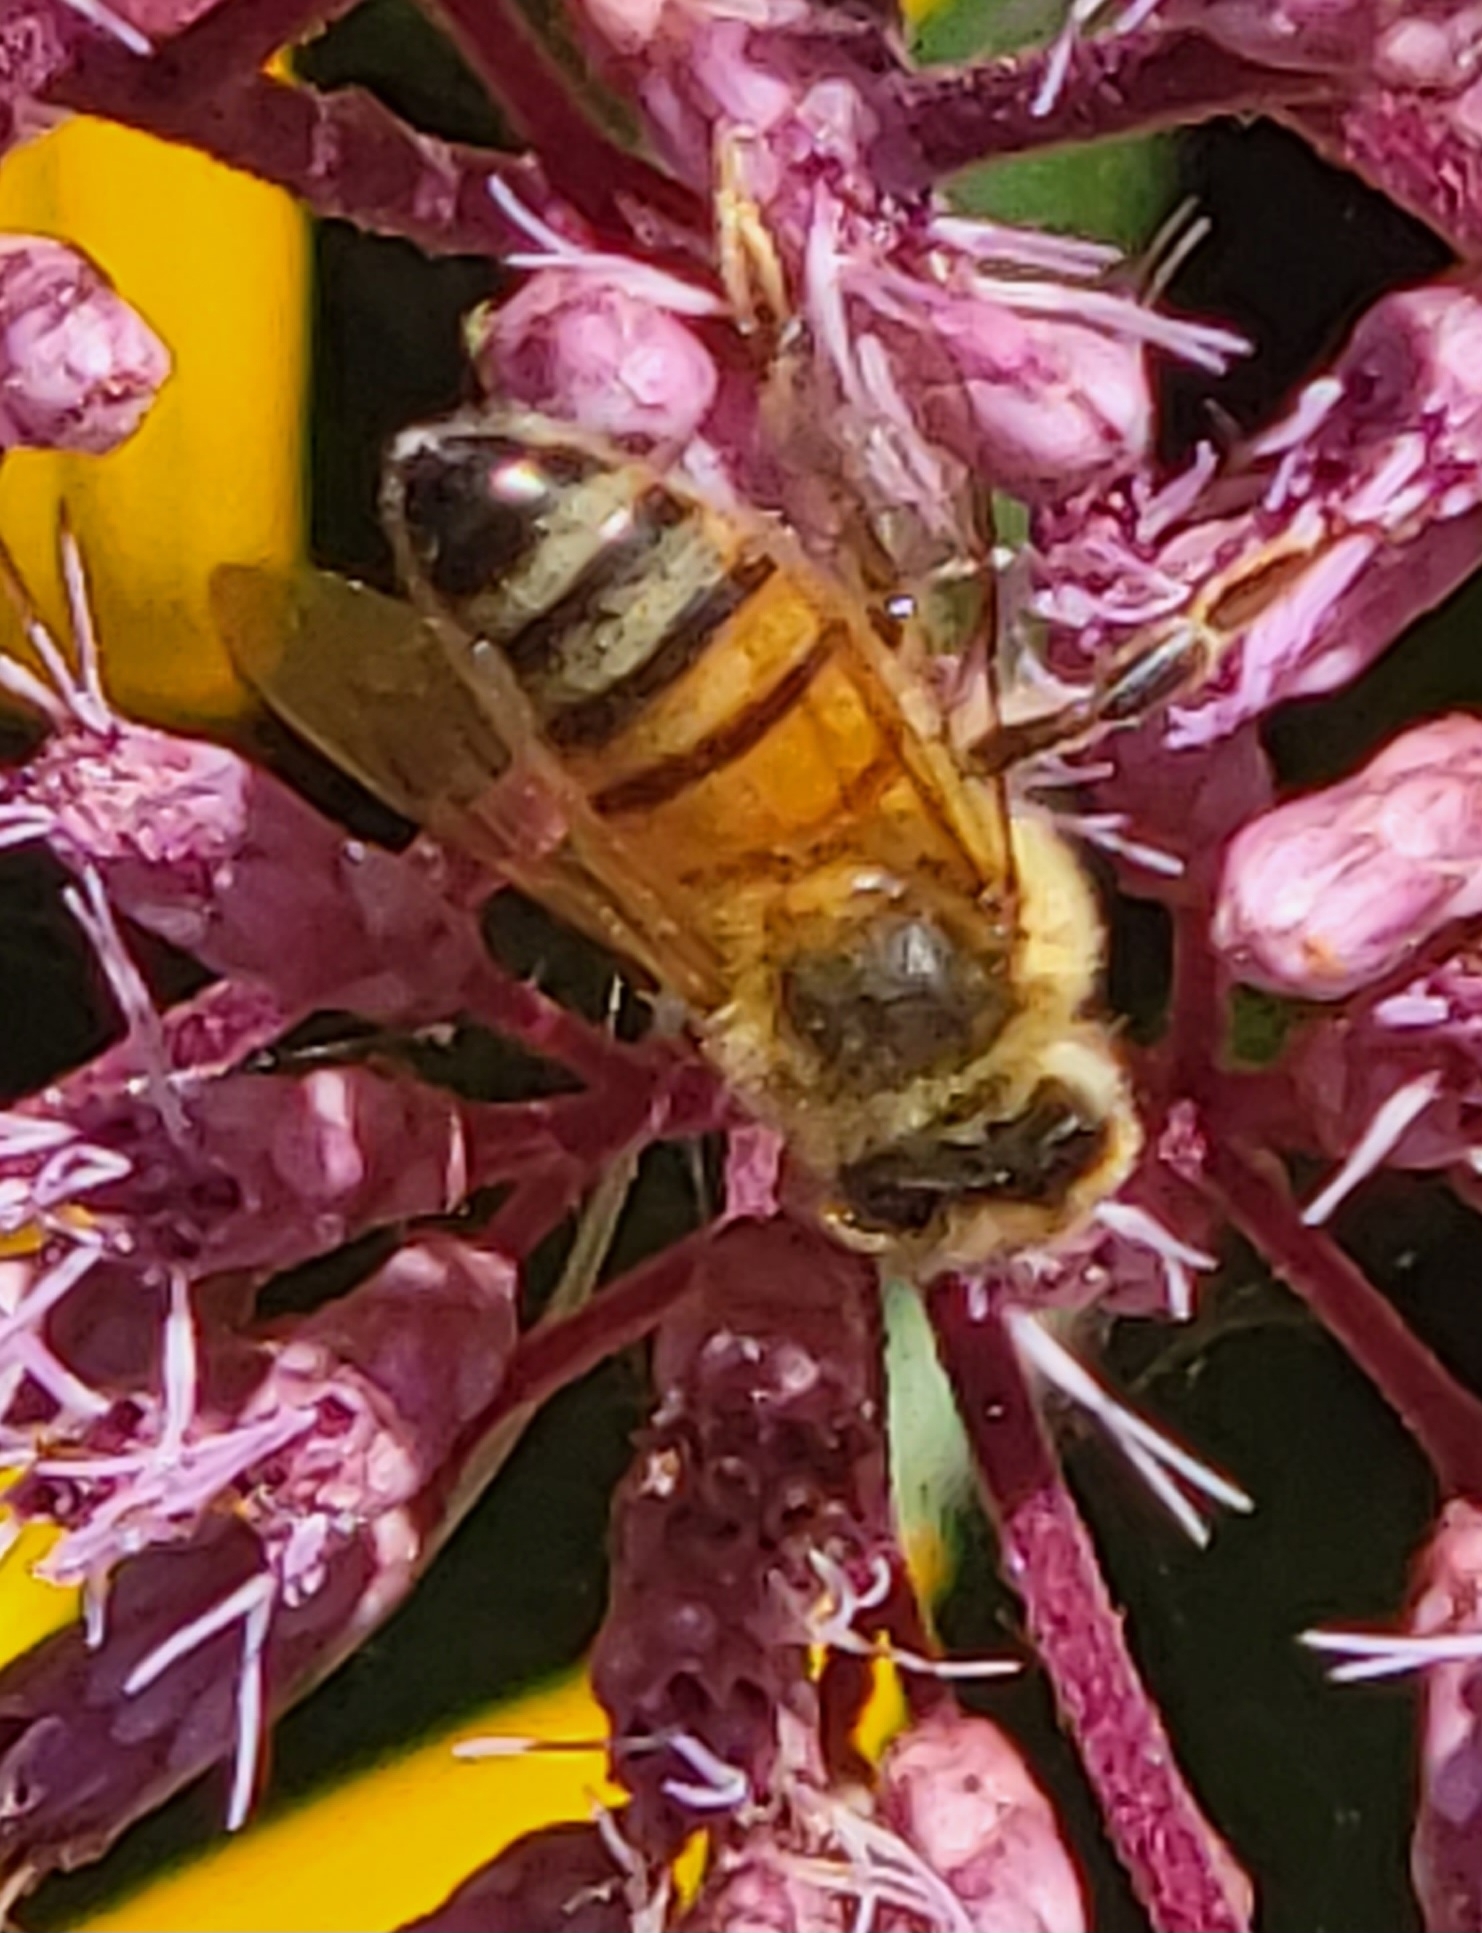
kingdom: Animalia
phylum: Arthropoda
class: Insecta
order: Hymenoptera
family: Apidae
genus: Apis
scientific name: Apis mellifera
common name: Honey bee
